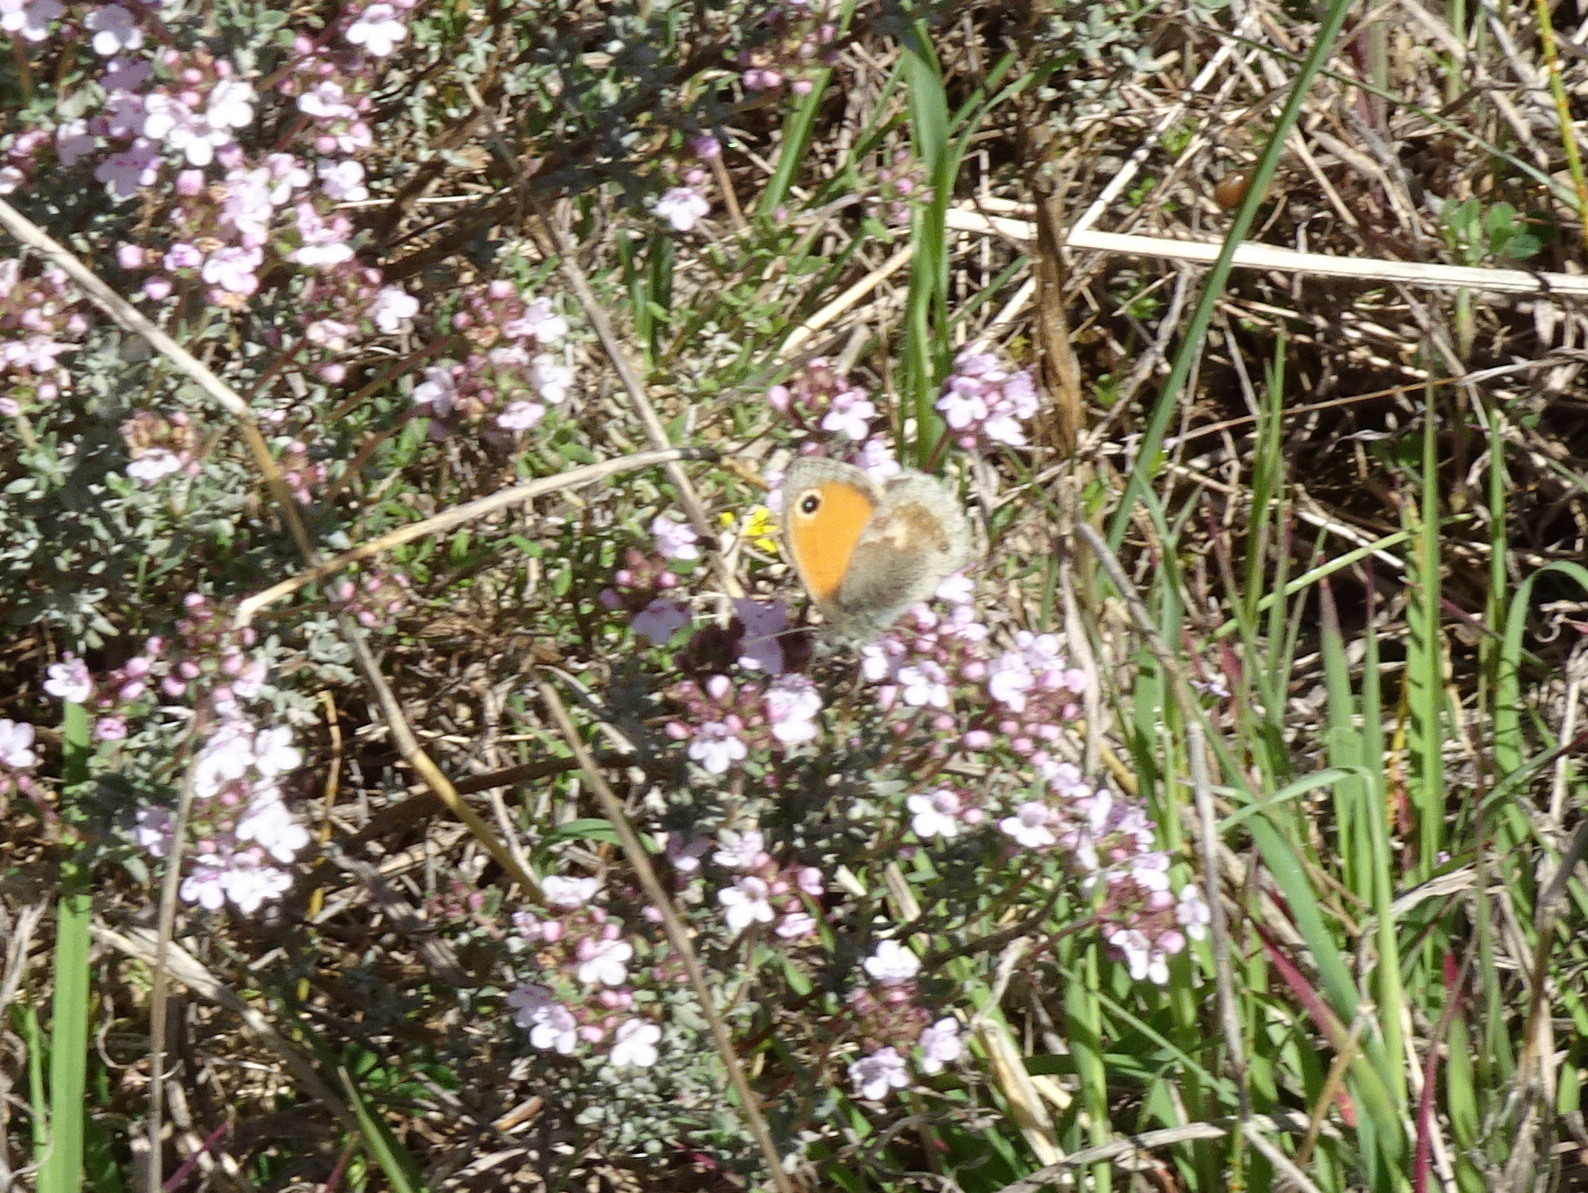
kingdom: Animalia
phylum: Arthropoda
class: Insecta
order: Lepidoptera
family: Nymphalidae
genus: Coenonympha
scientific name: Coenonympha pamphilus
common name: Small heath
